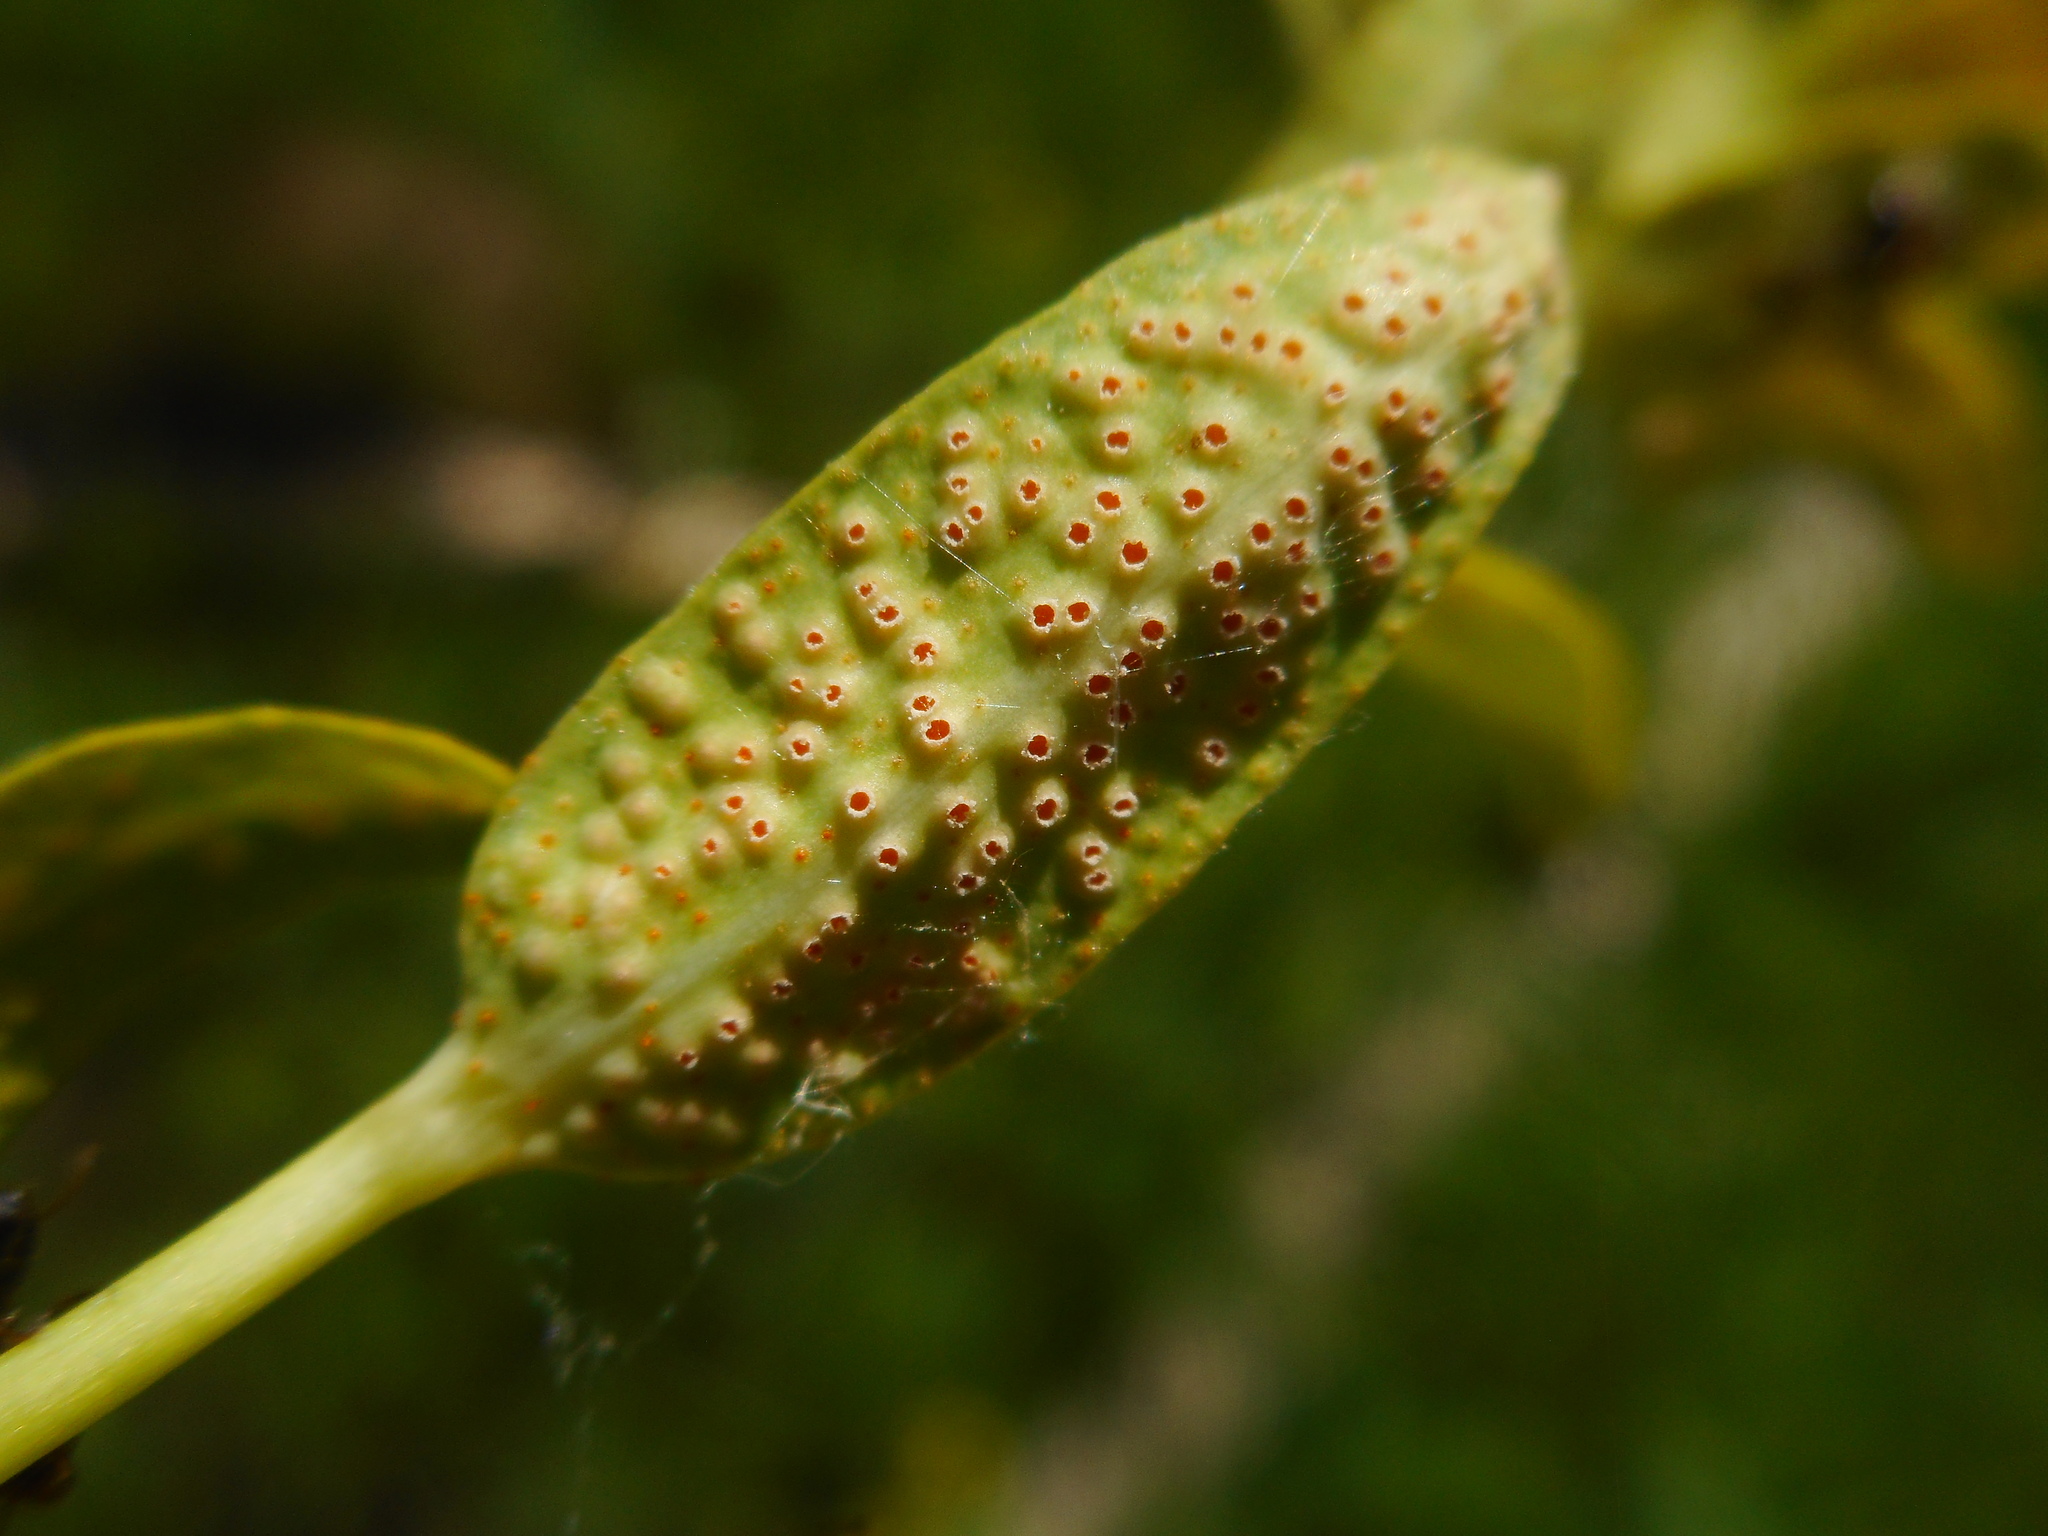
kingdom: Fungi
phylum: Basidiomycota
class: Pucciniomycetes
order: Pucciniales
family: Pucciniaceae
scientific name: Pucciniaceae
